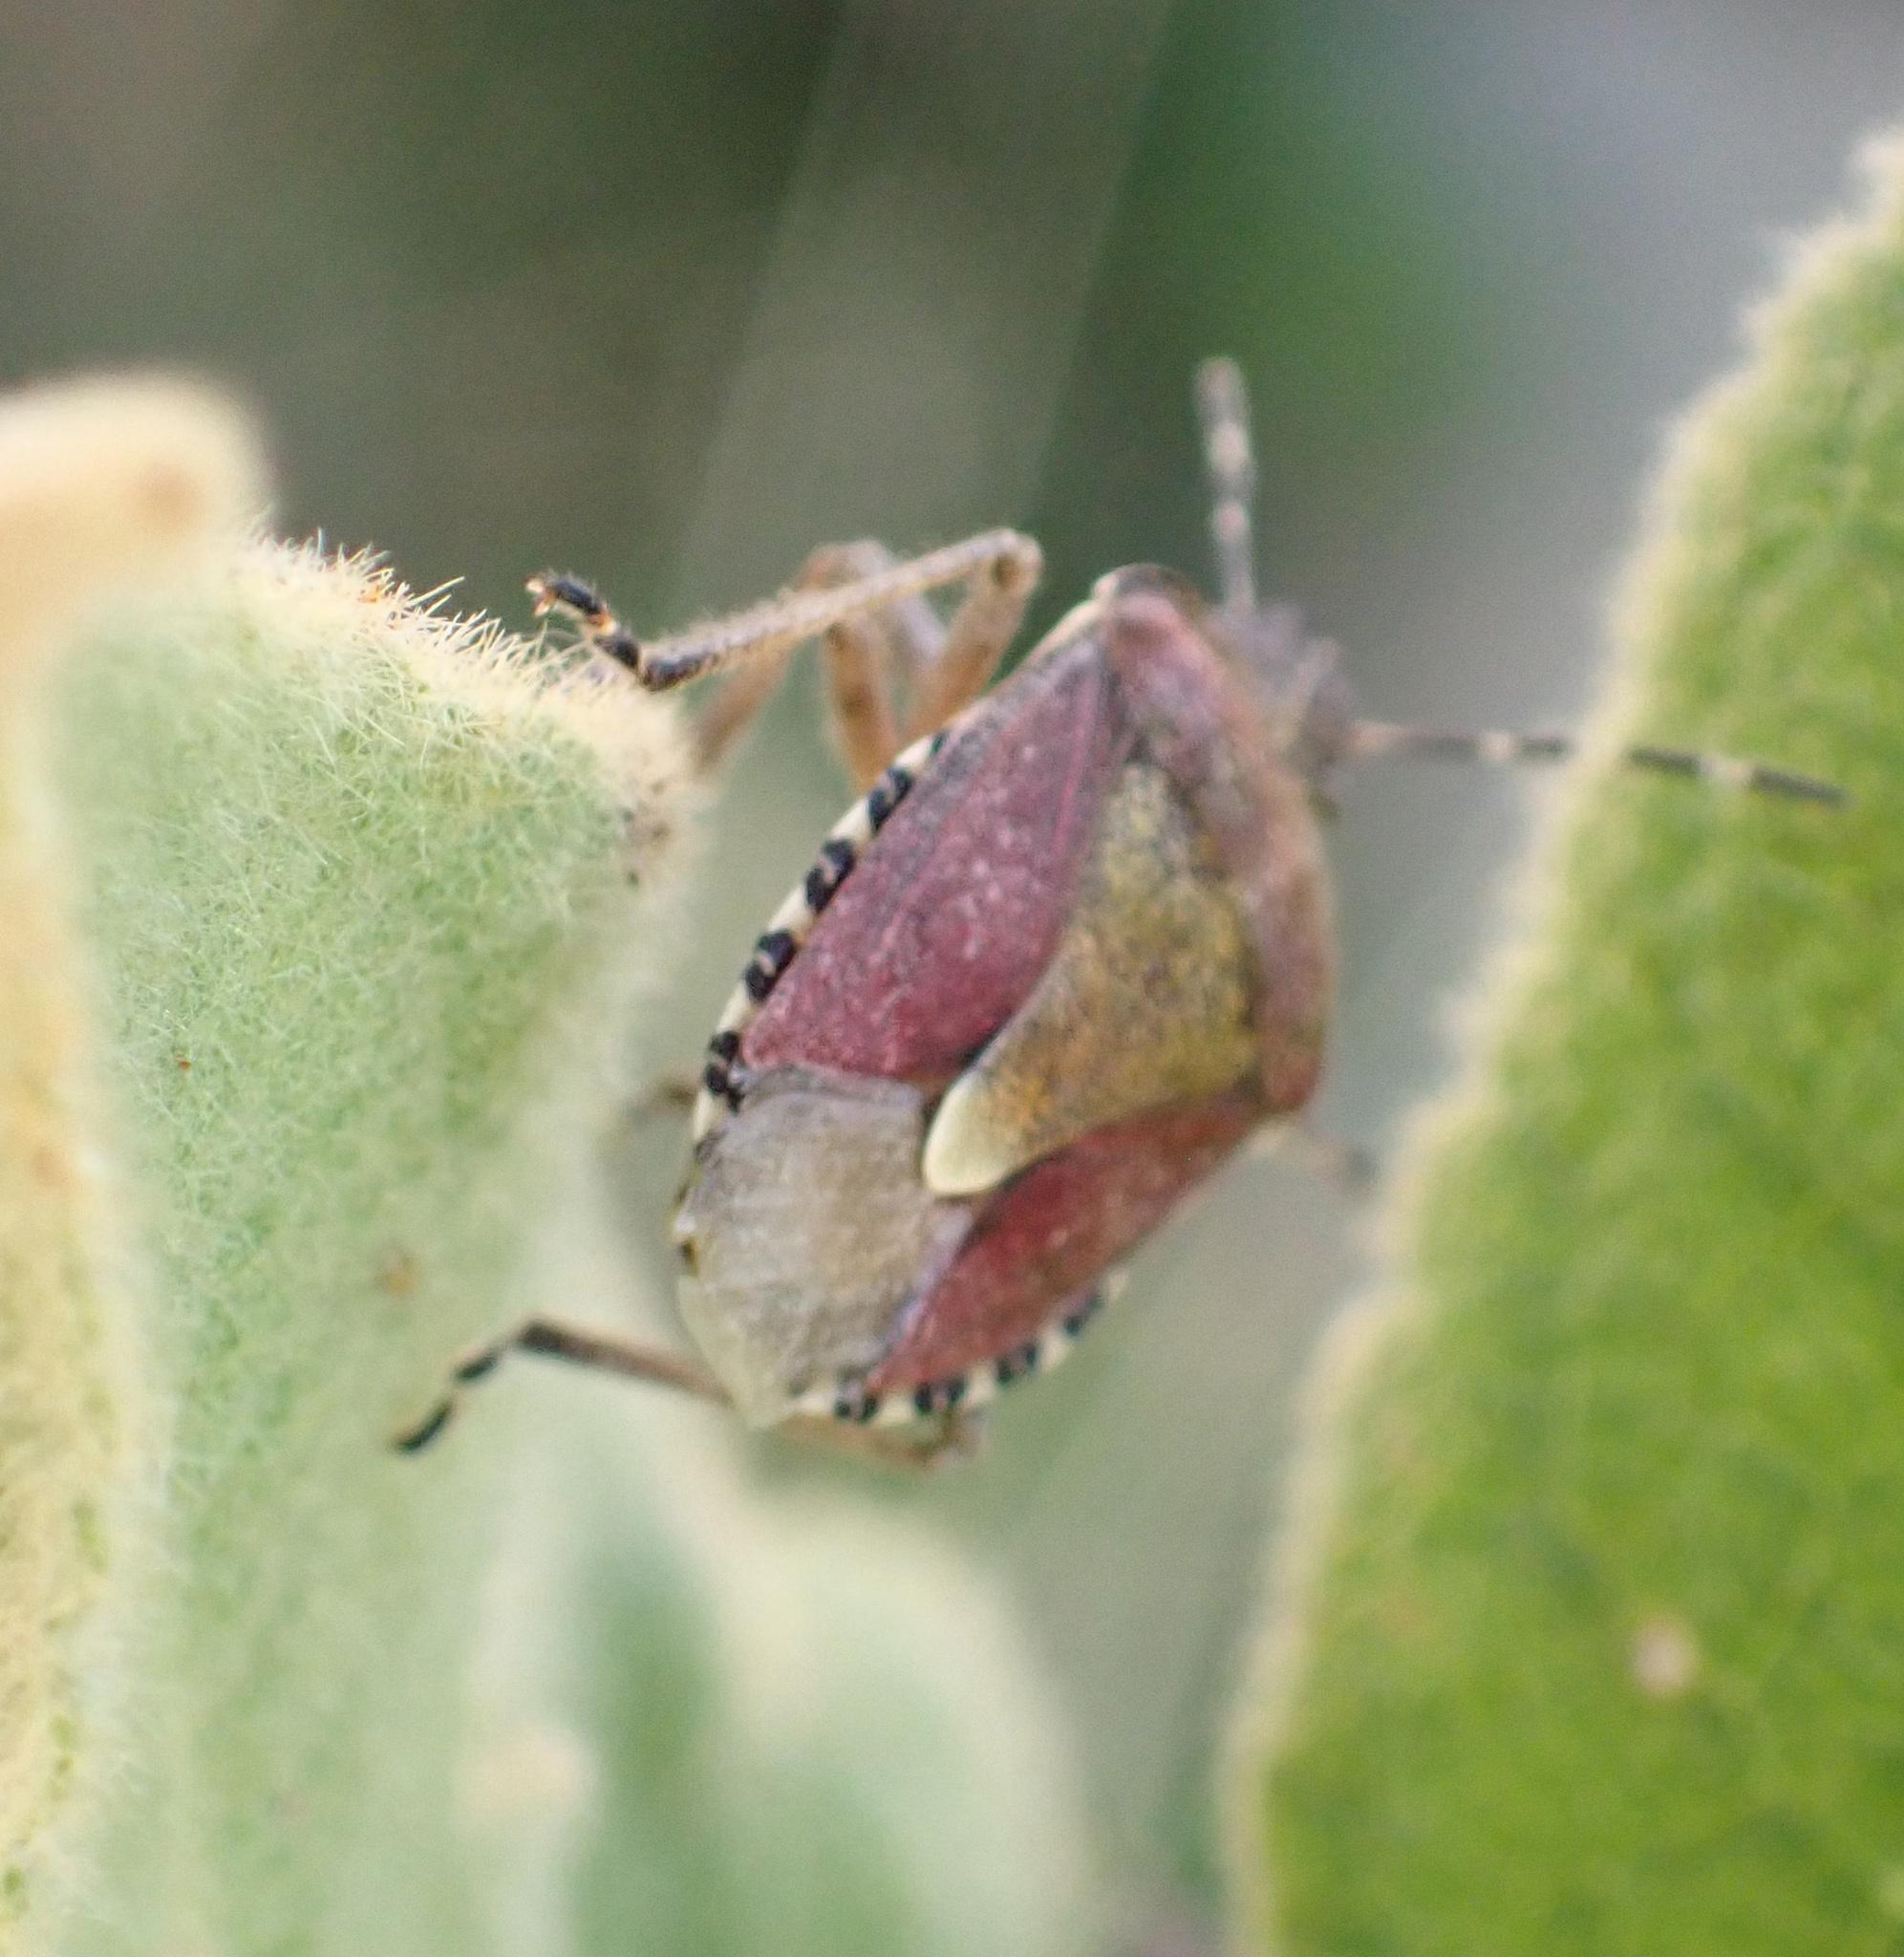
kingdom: Animalia
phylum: Arthropoda
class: Insecta
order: Hemiptera
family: Pentatomidae
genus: Dolycoris
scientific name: Dolycoris baccarum
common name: Sloe bug
